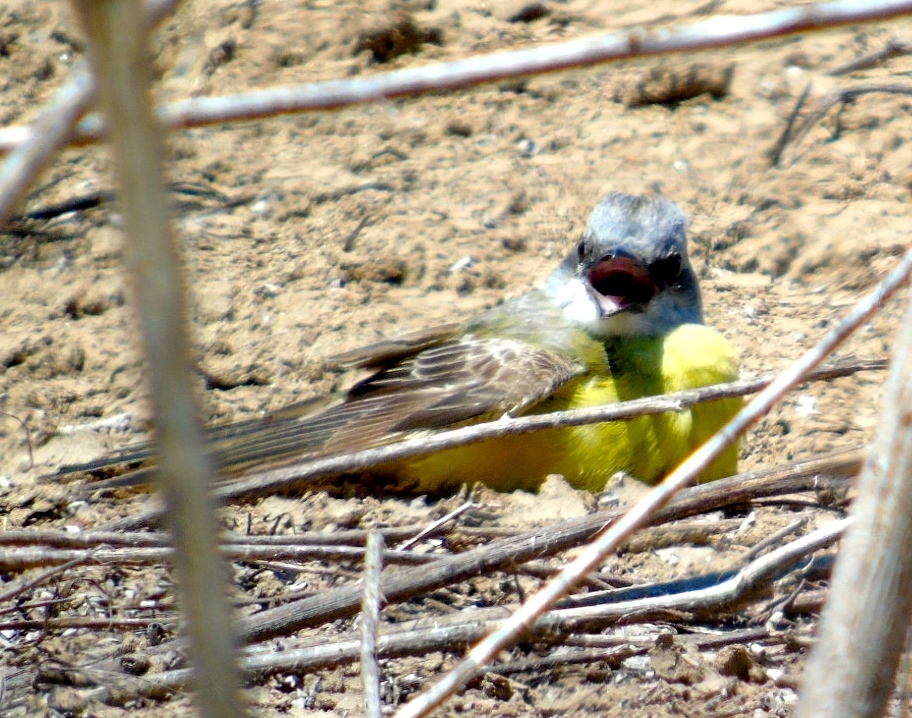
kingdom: Animalia
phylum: Chordata
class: Aves
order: Passeriformes
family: Tyrannidae
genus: Tyrannus
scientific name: Tyrannus melancholicus
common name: Tropical kingbird
